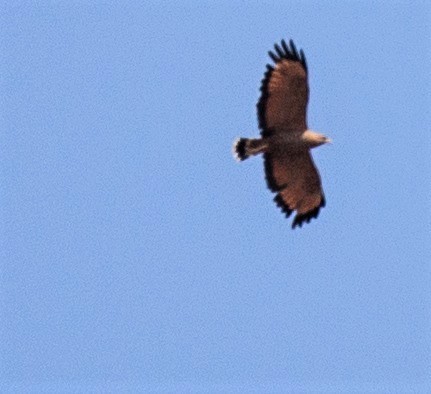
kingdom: Animalia
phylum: Chordata
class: Aves
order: Accipitriformes
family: Accipitridae
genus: Buteogallus
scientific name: Buteogallus meridionalis
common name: Savanna hawk
